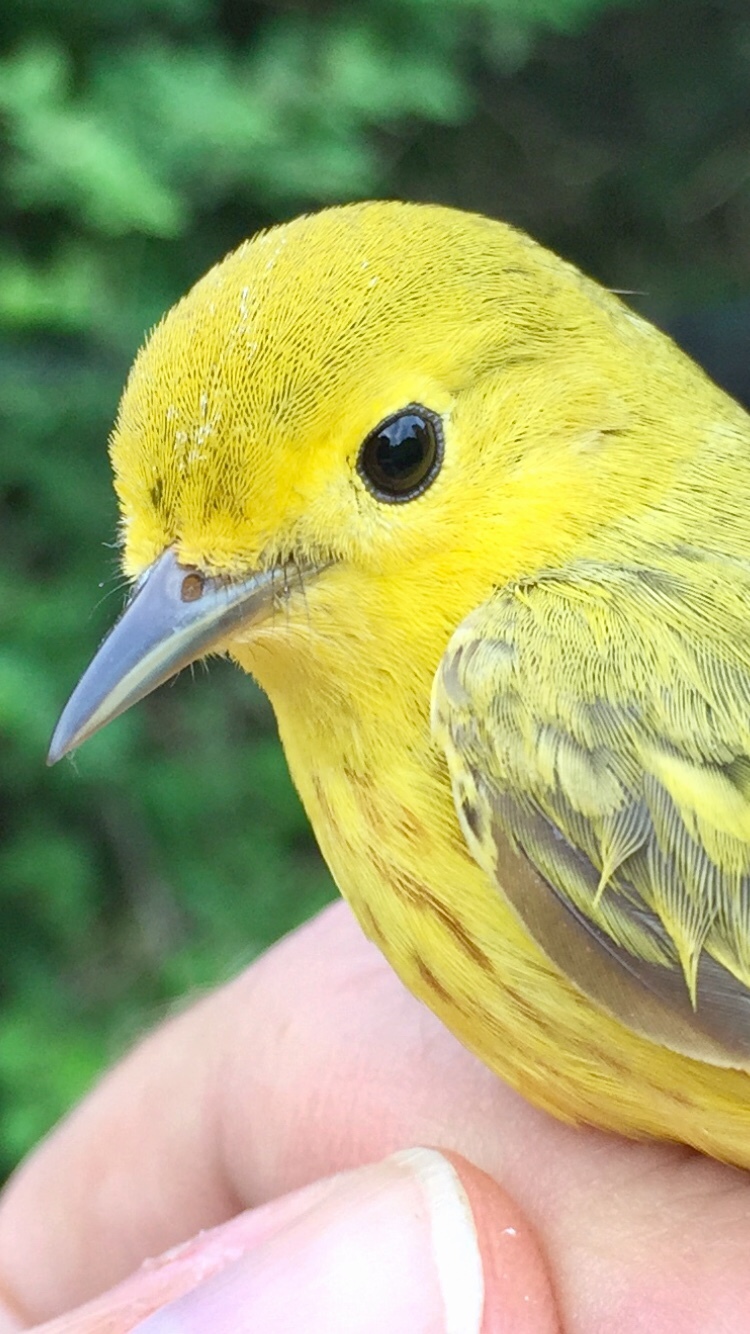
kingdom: Animalia
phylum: Chordata
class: Aves
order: Passeriformes
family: Parulidae
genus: Setophaga
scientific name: Setophaga petechia
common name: Yellow warbler
